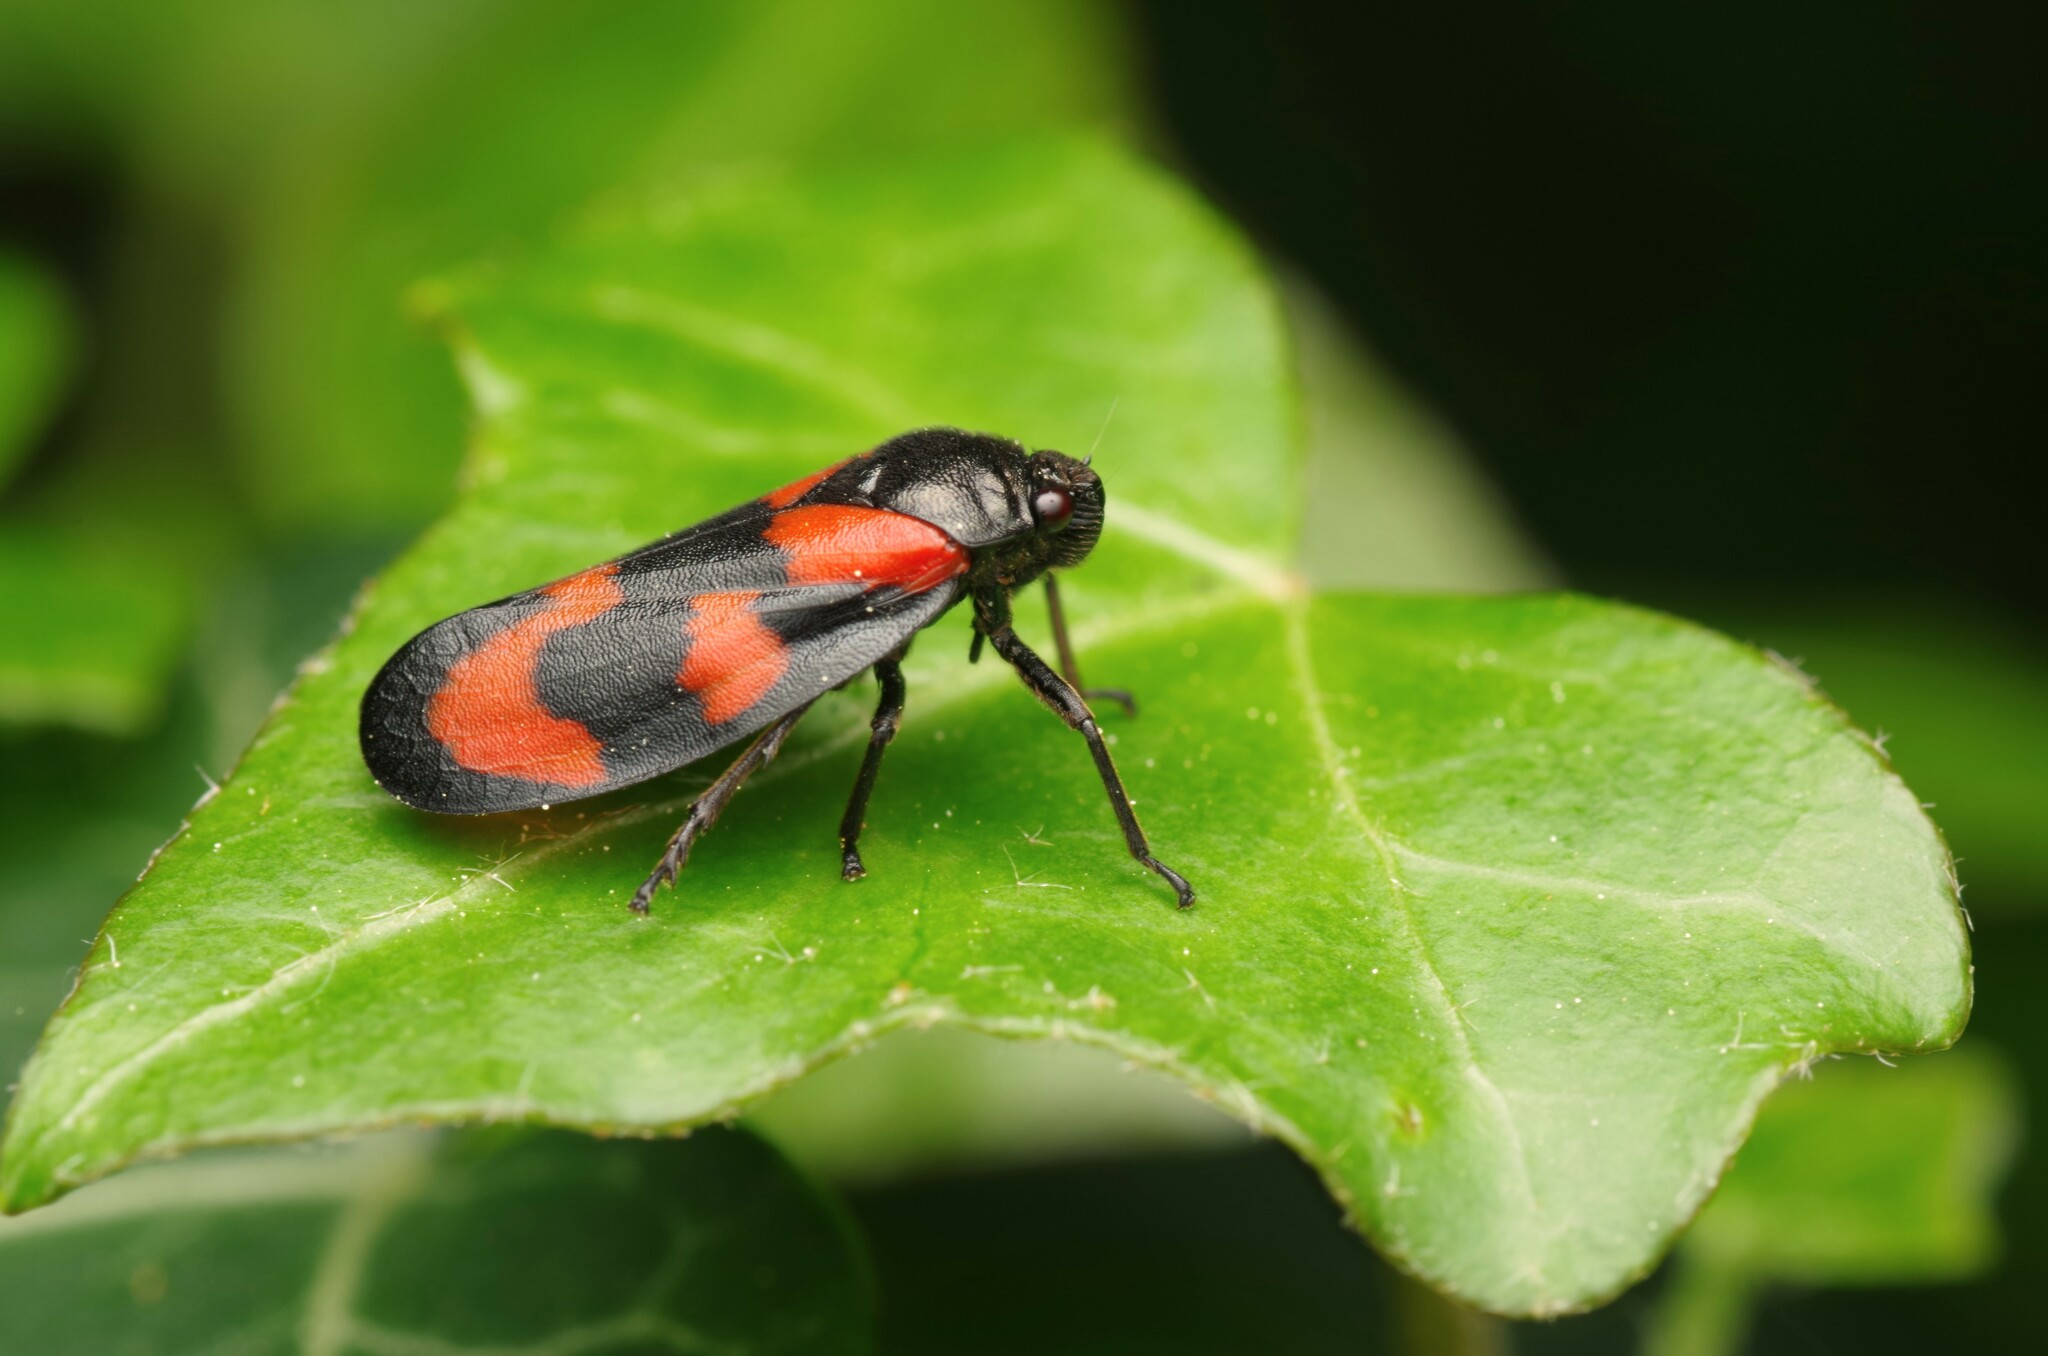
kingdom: Animalia
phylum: Arthropoda
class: Insecta
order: Hemiptera
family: Cercopidae
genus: Cercopis
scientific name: Cercopis vulnerata
